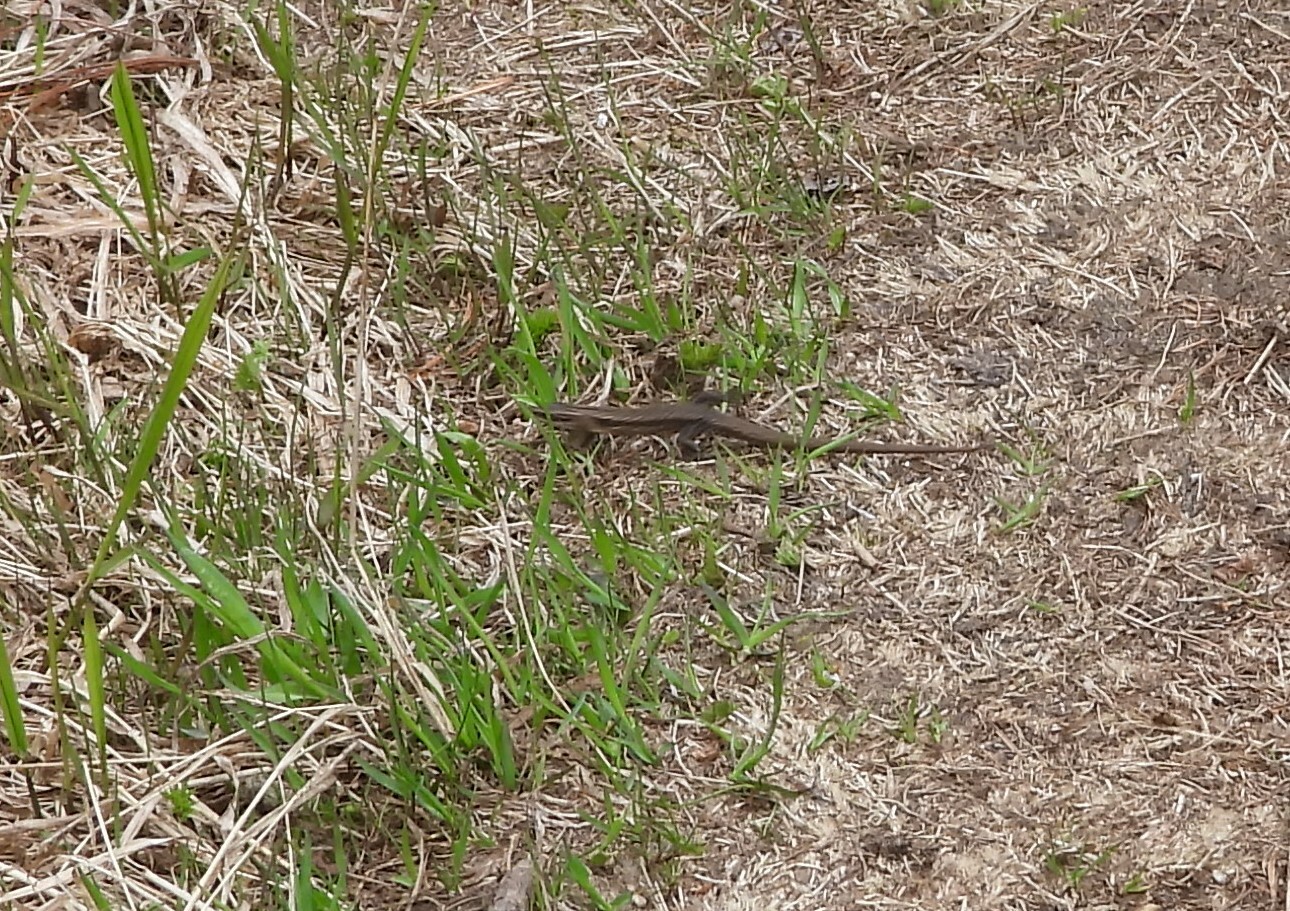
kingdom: Animalia
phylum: Chordata
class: Squamata
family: Lacertidae
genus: Podarcis
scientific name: Podarcis muralis
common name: Common wall lizard
